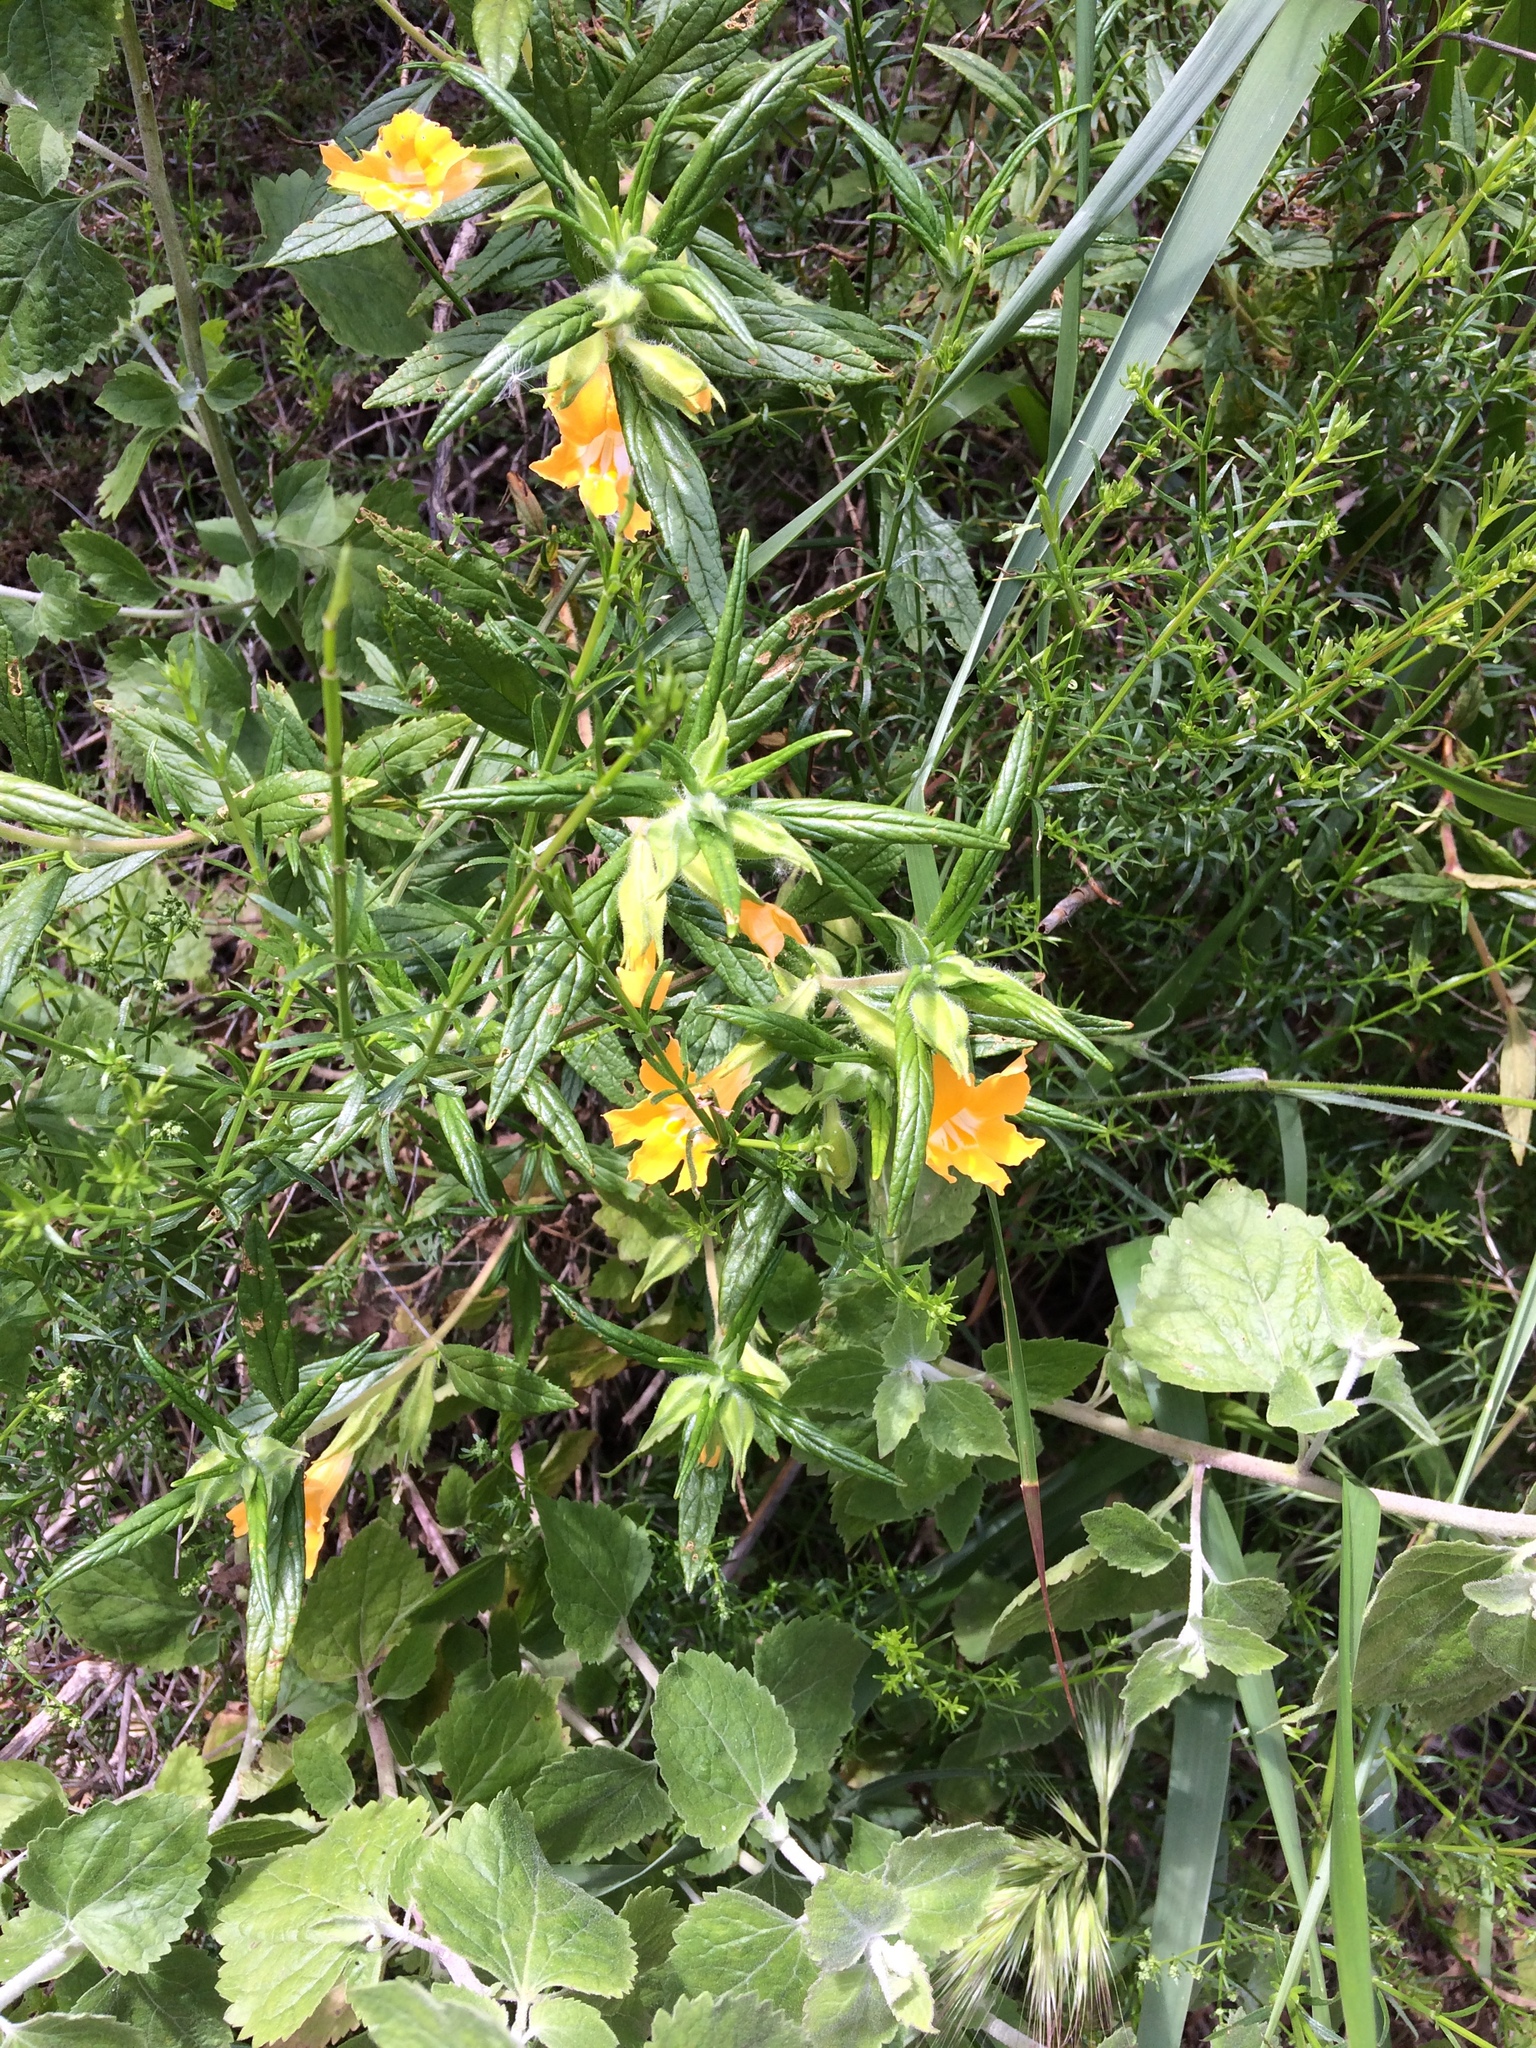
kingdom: Plantae
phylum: Tracheophyta
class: Magnoliopsida
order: Lamiales
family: Phrymaceae
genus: Diplacus
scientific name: Diplacus longiflorus
